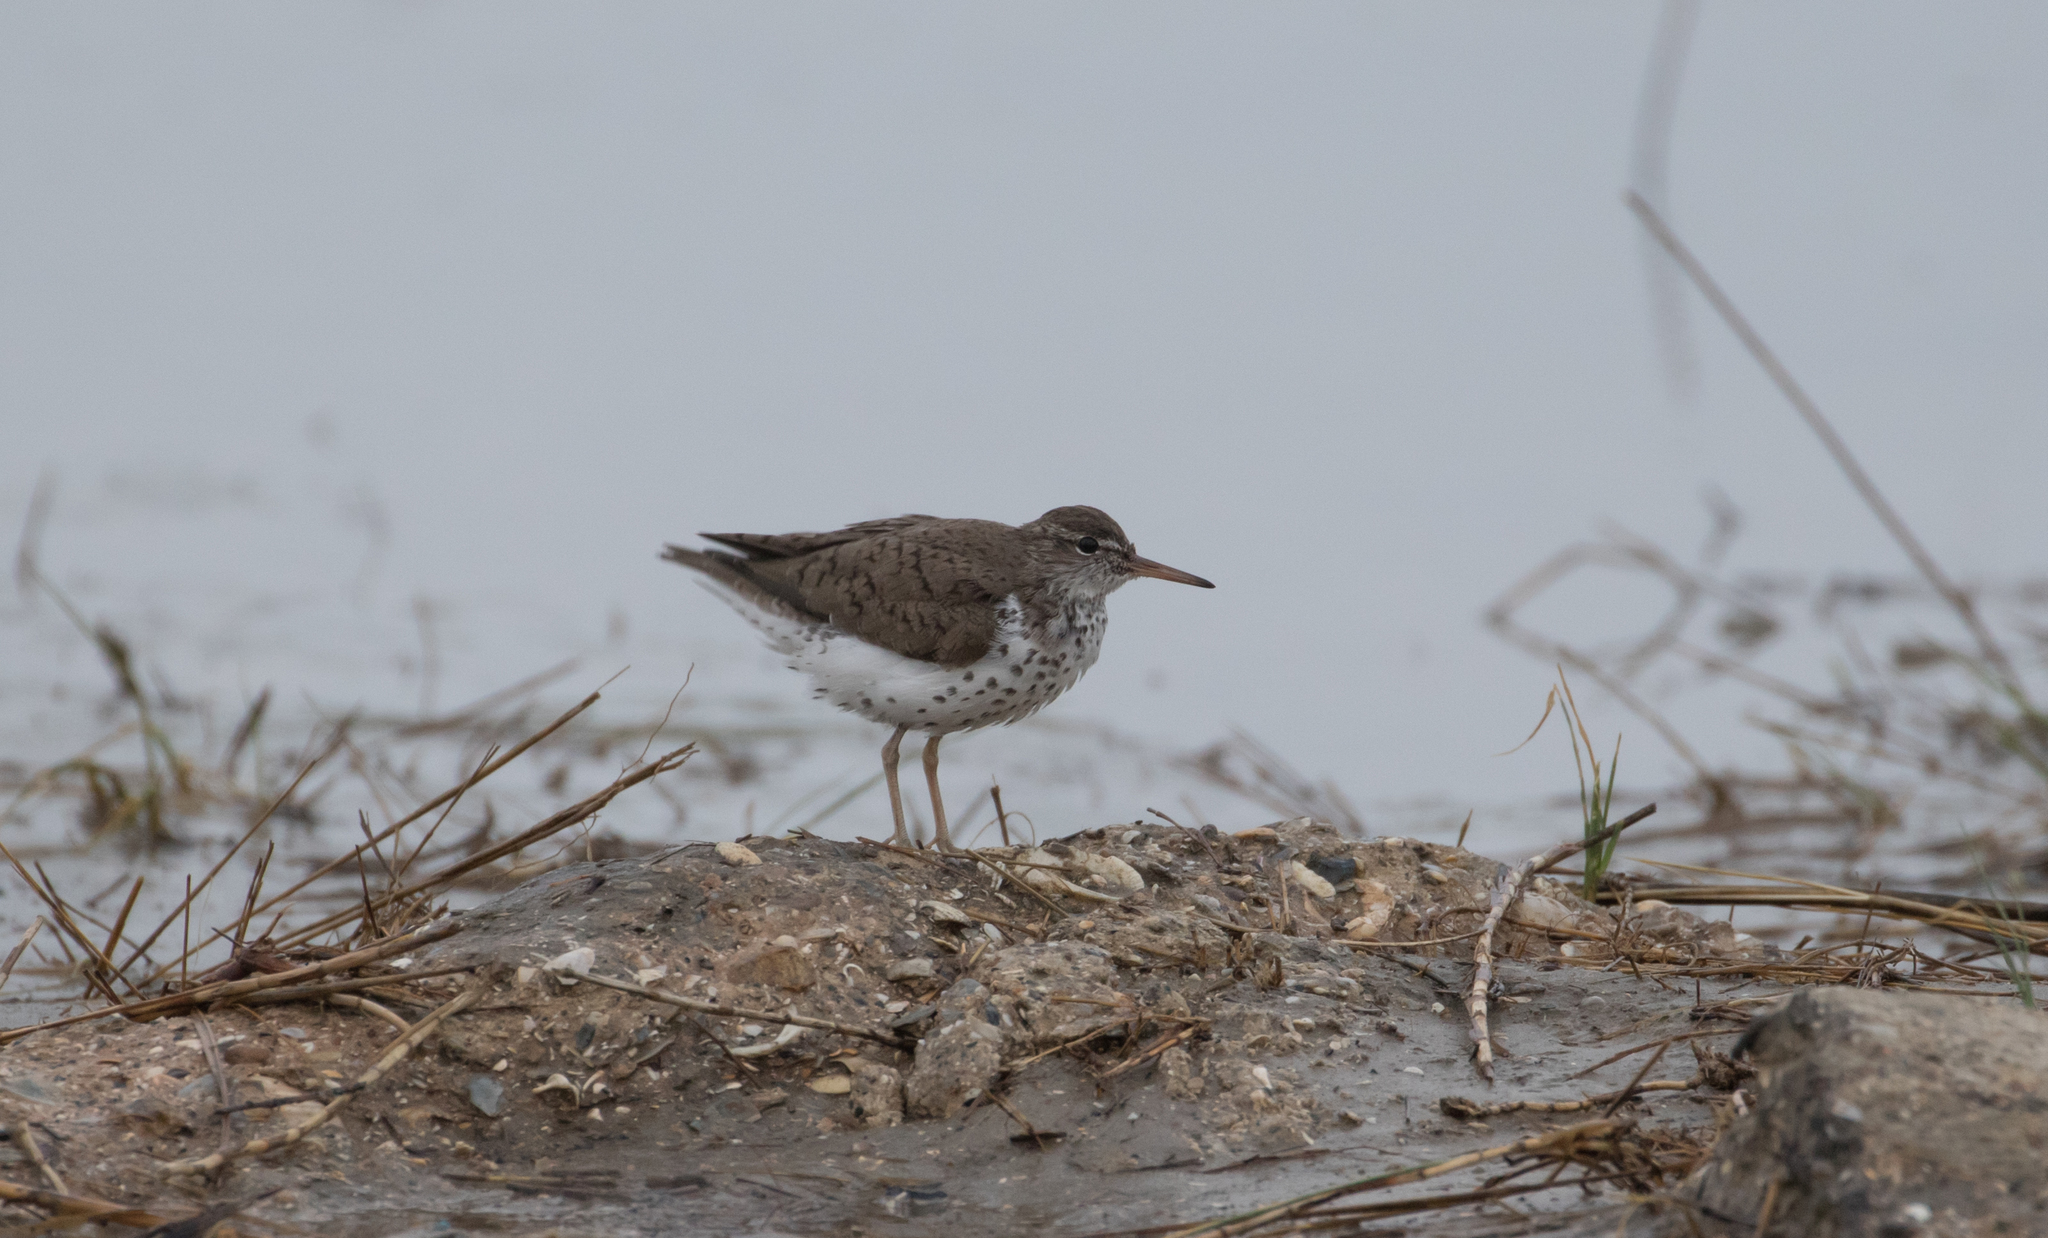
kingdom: Animalia
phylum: Chordata
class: Aves
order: Charadriiformes
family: Scolopacidae
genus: Actitis
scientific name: Actitis macularius
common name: Spotted sandpiper
